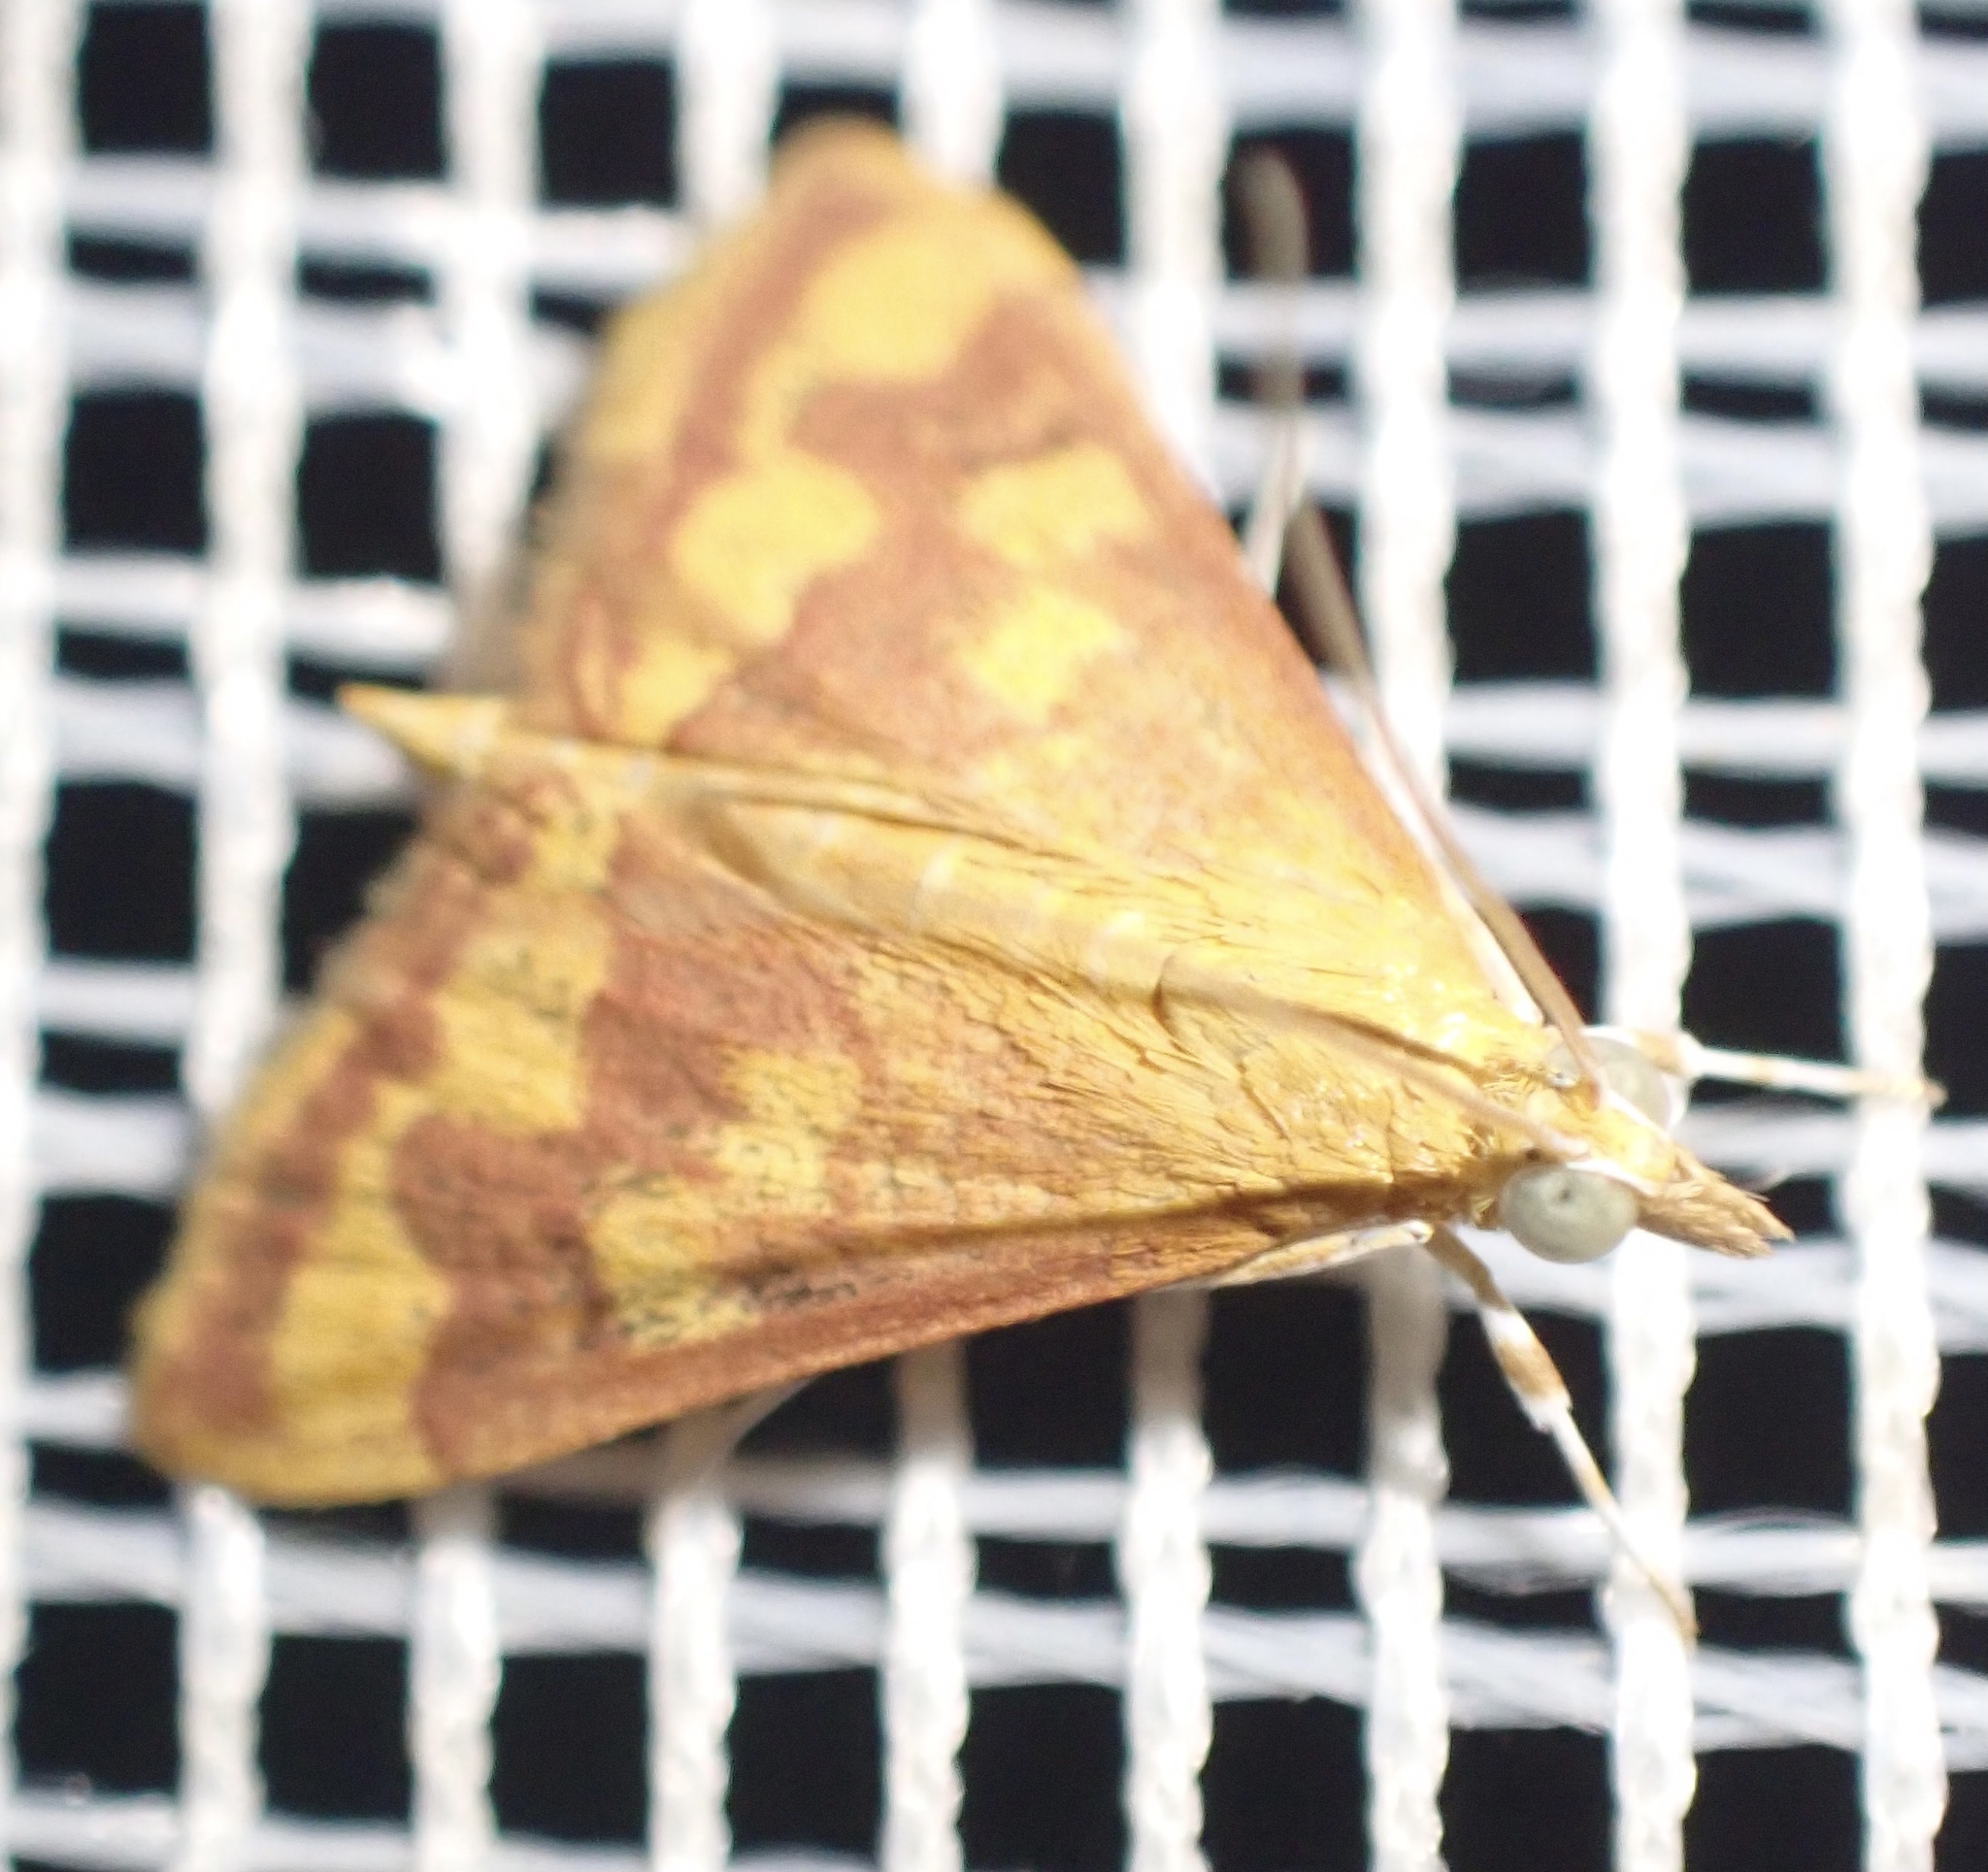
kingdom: Animalia
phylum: Arthropoda
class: Insecta
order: Lepidoptera
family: Crambidae
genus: Pyrausta
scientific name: Pyrausta phoenicealis
